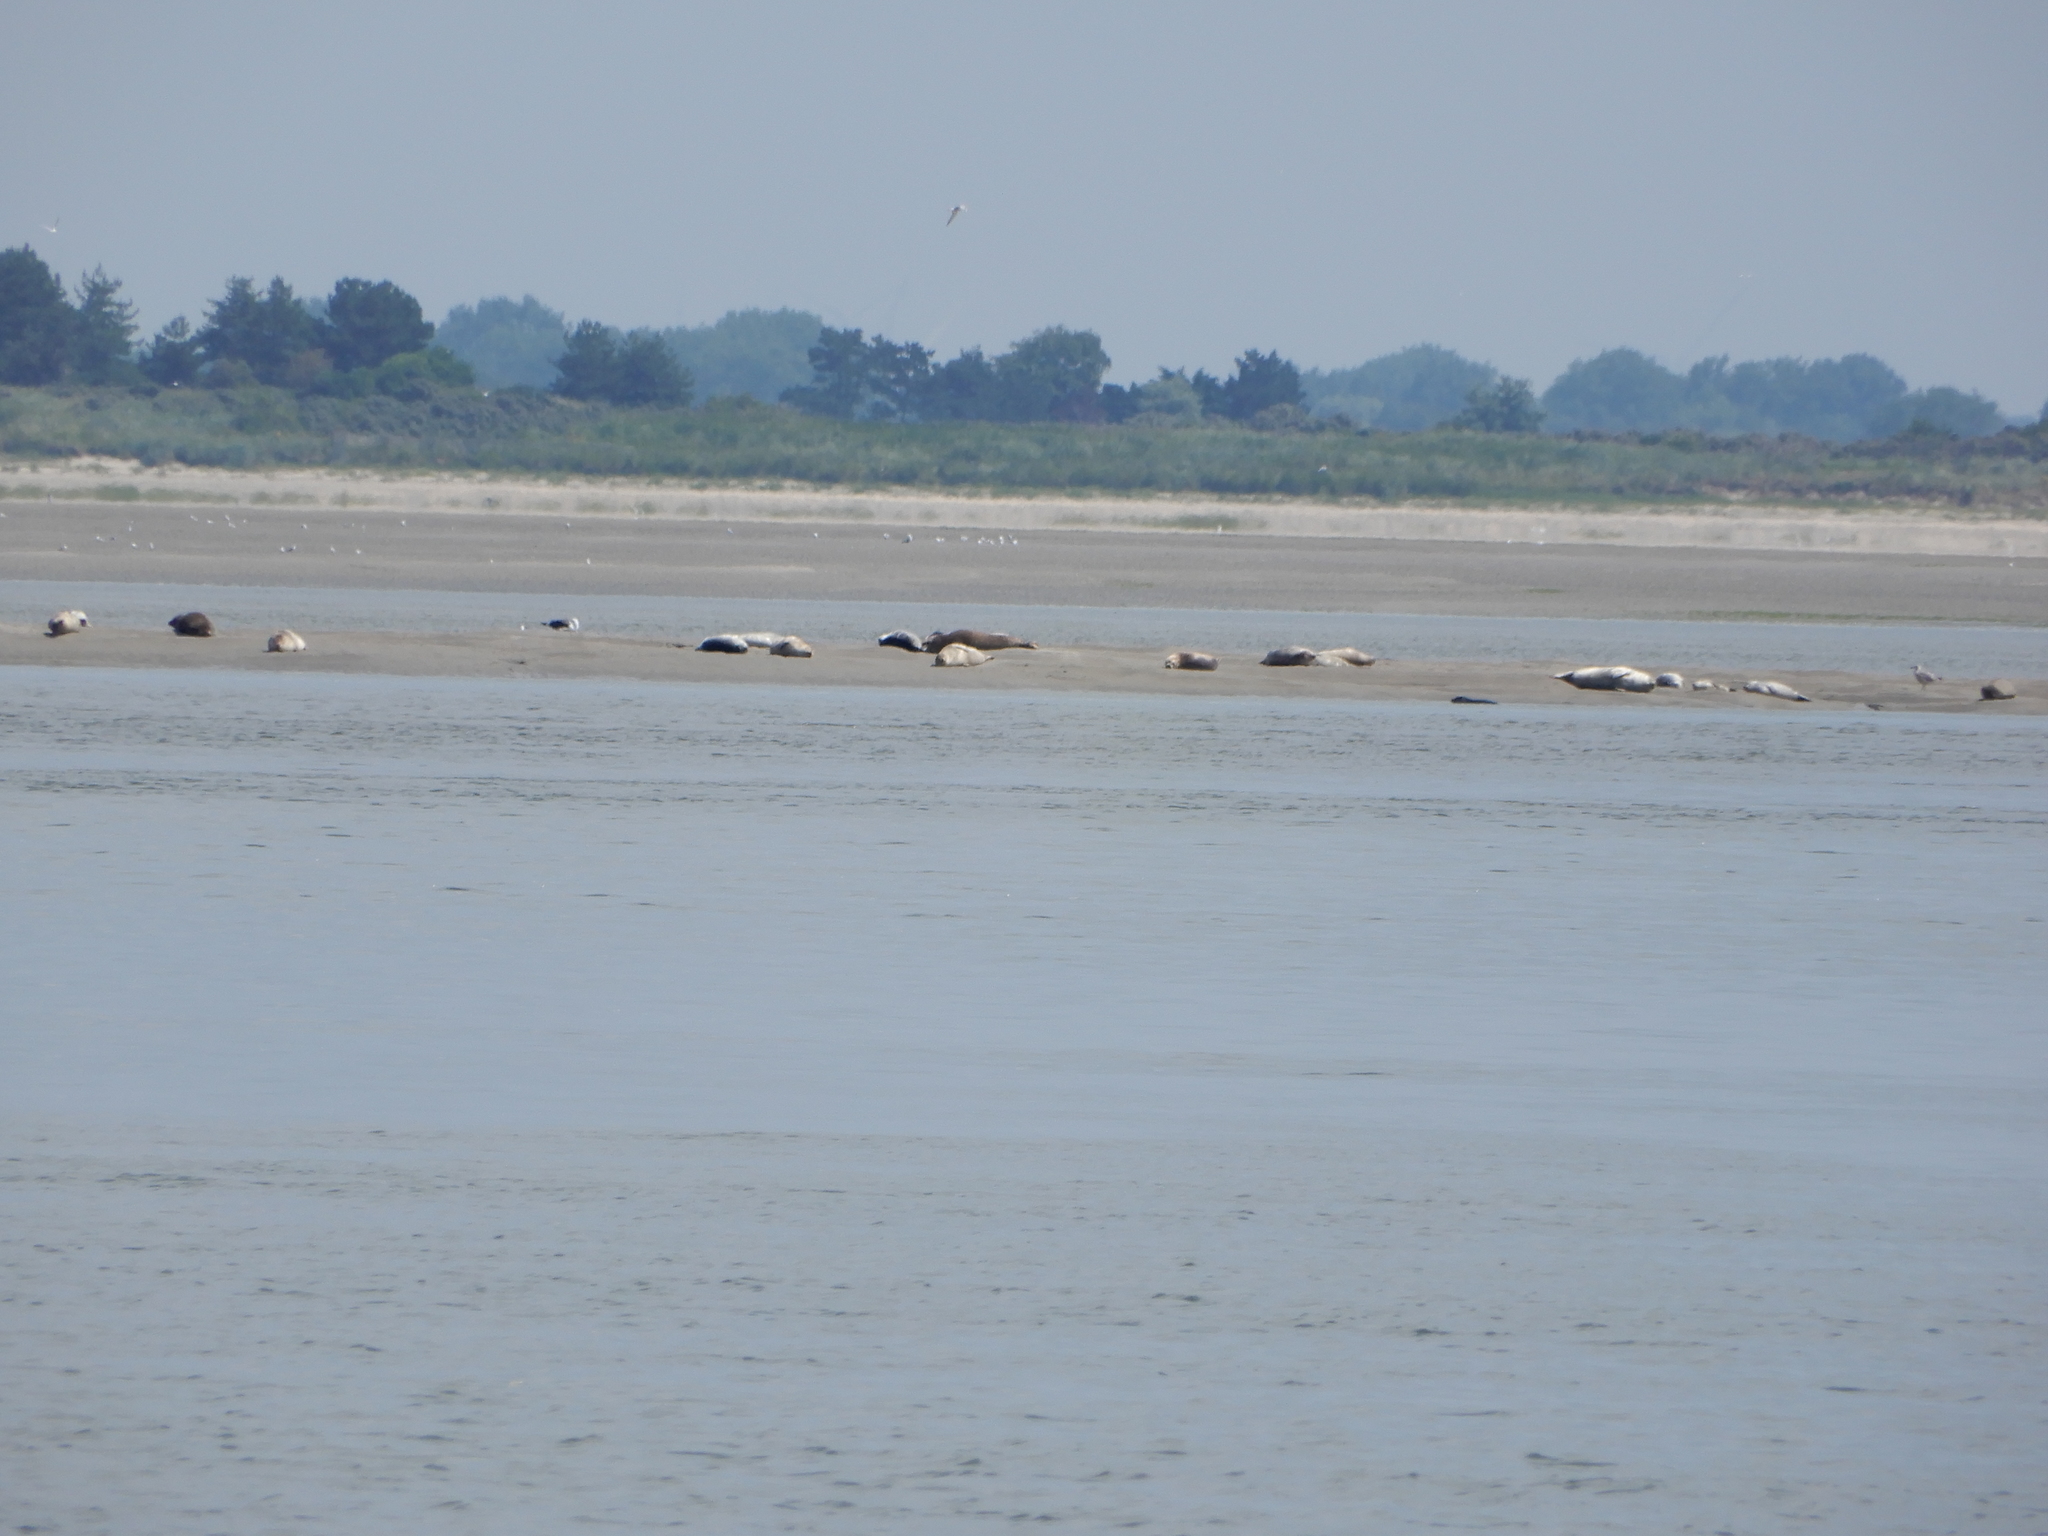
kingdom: Animalia
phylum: Chordata
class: Mammalia
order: Carnivora
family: Phocidae
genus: Phoca
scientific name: Phoca vitulina
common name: Harbor seal
